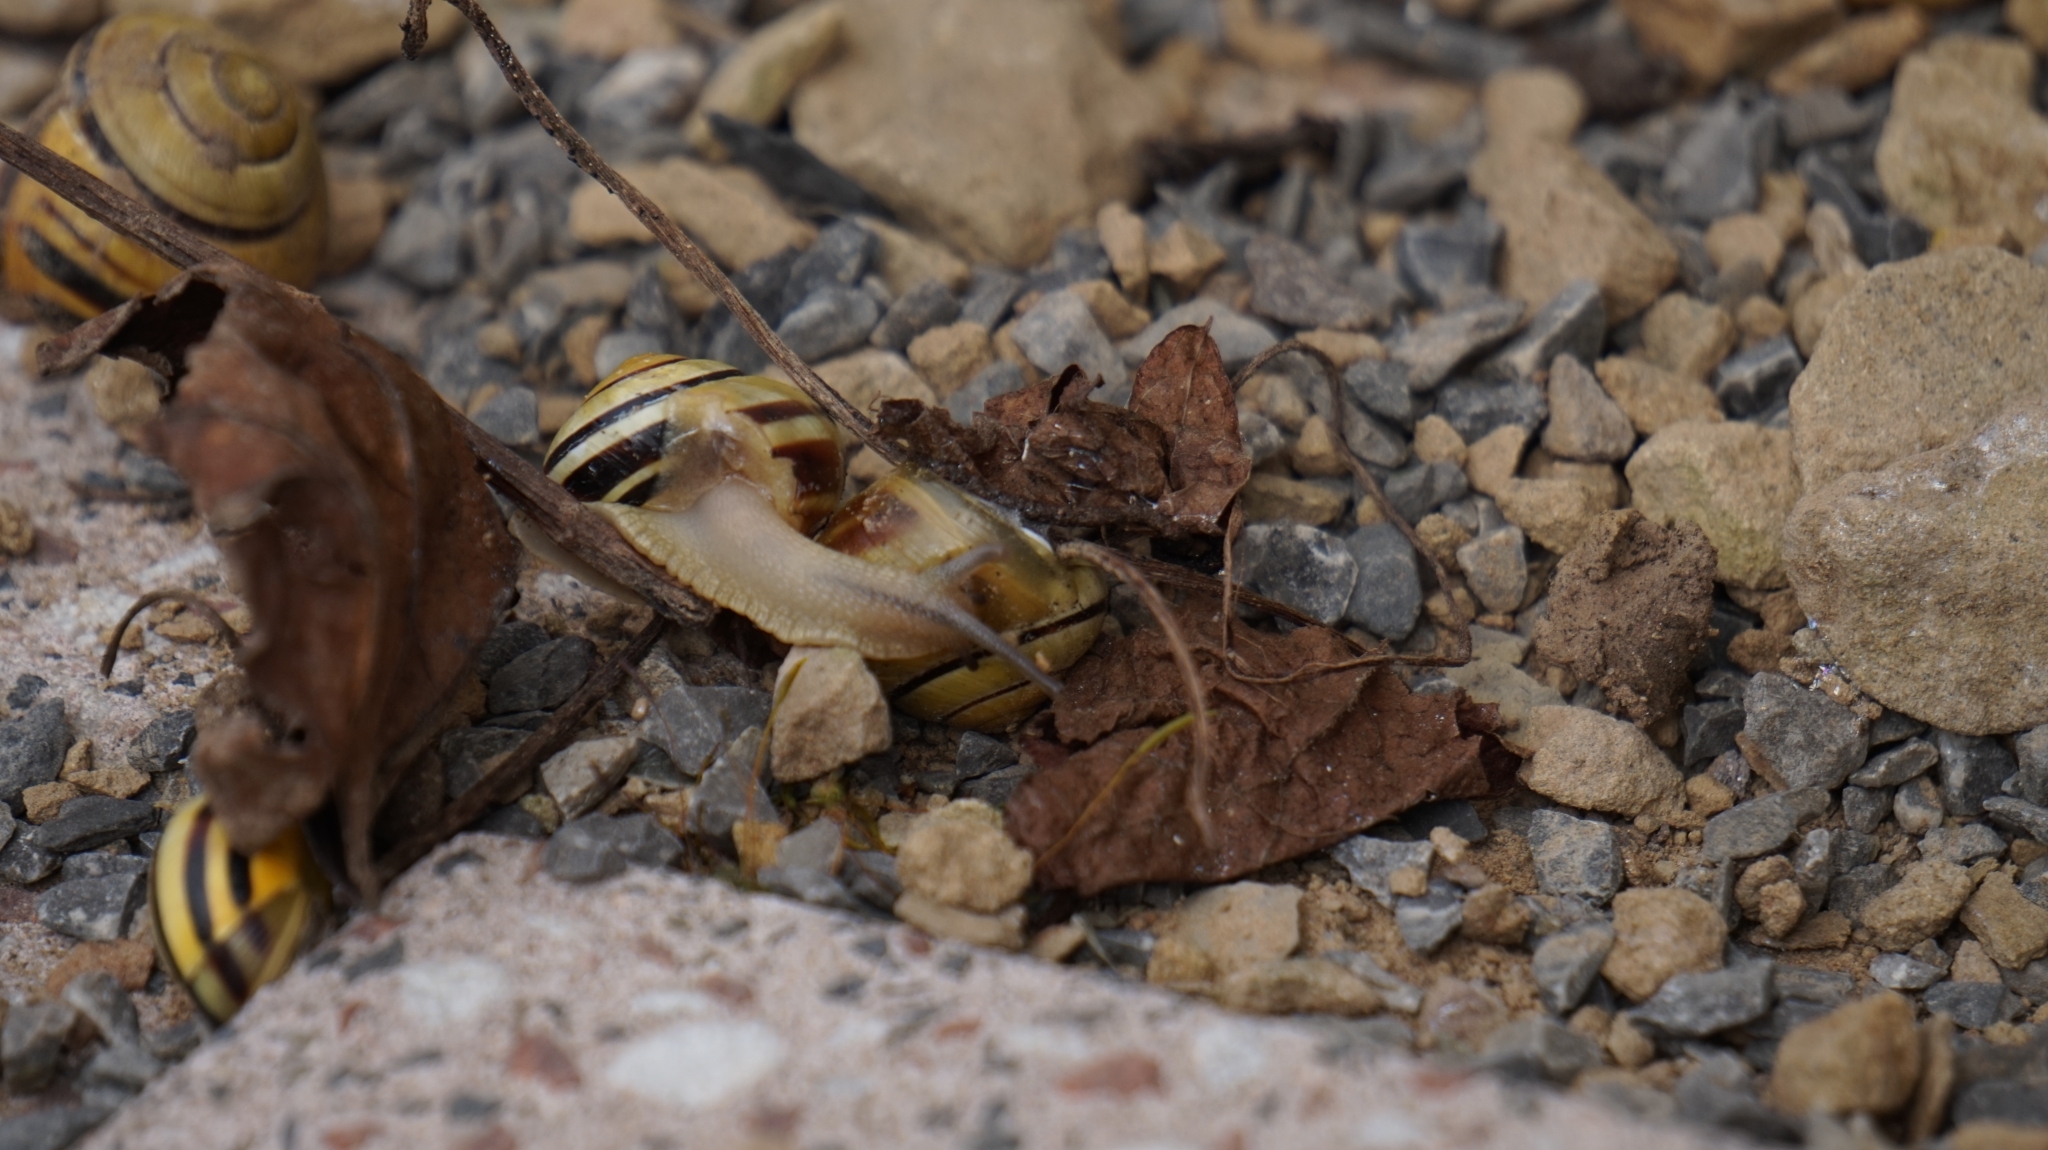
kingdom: Animalia
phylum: Mollusca
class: Gastropoda
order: Stylommatophora
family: Helicidae
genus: Cepaea
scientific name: Cepaea nemoralis
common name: Grovesnail
